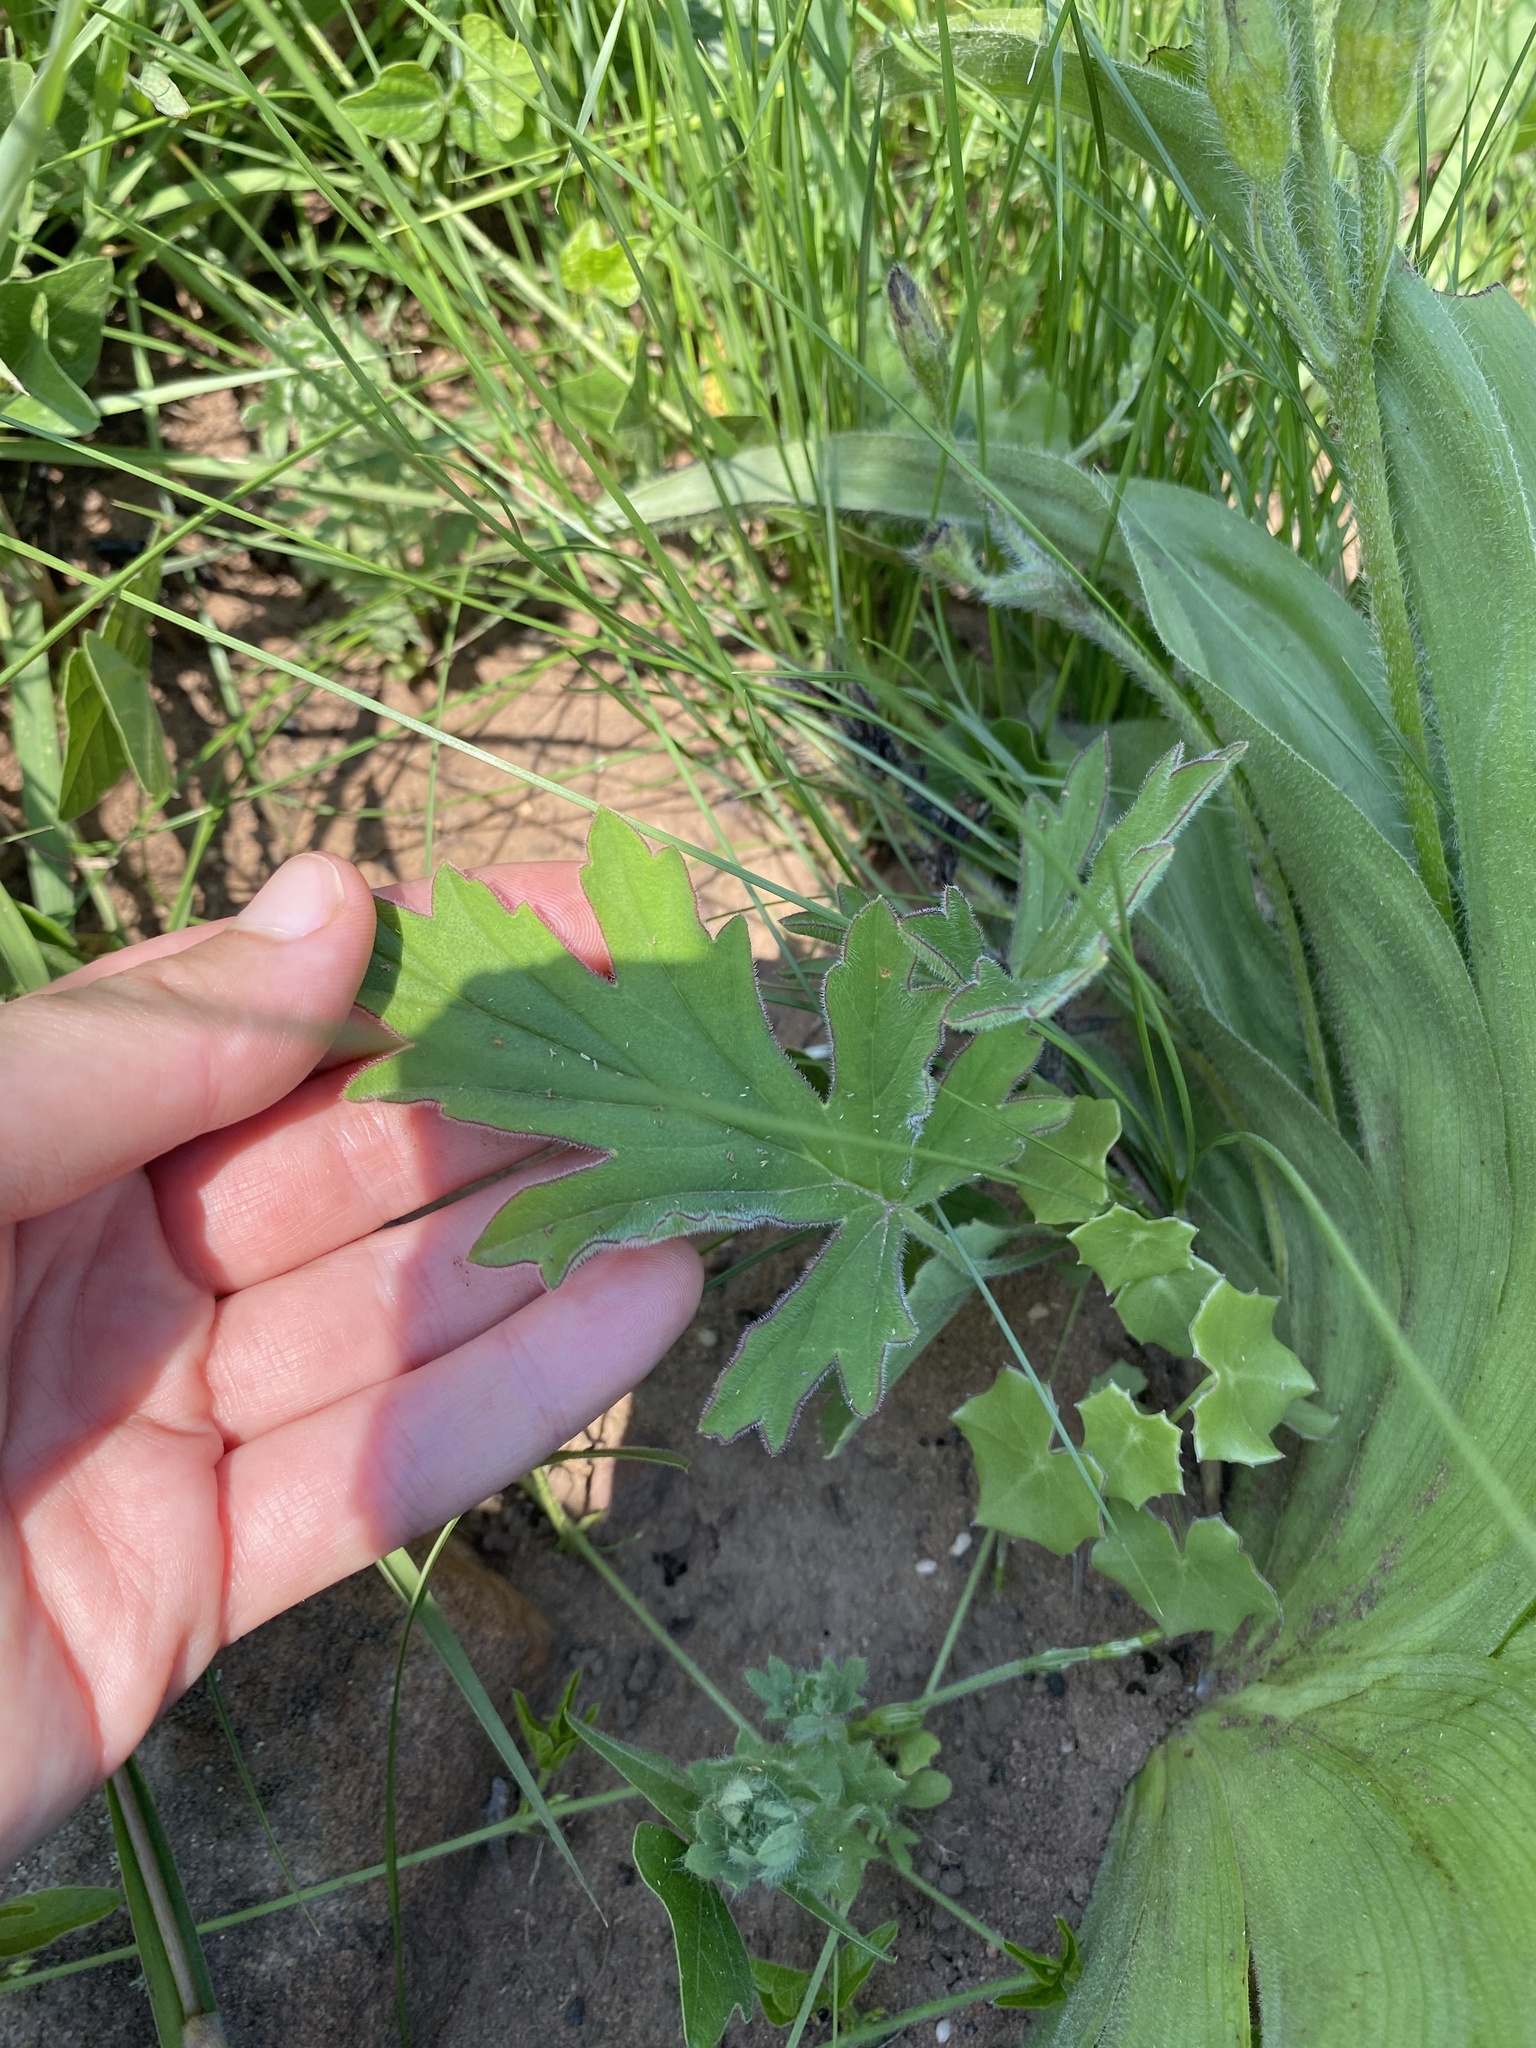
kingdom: Plantae
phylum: Tracheophyta
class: Magnoliopsida
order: Geraniales
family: Geraniaceae
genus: Pelargonium
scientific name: Pelargonium luridum
